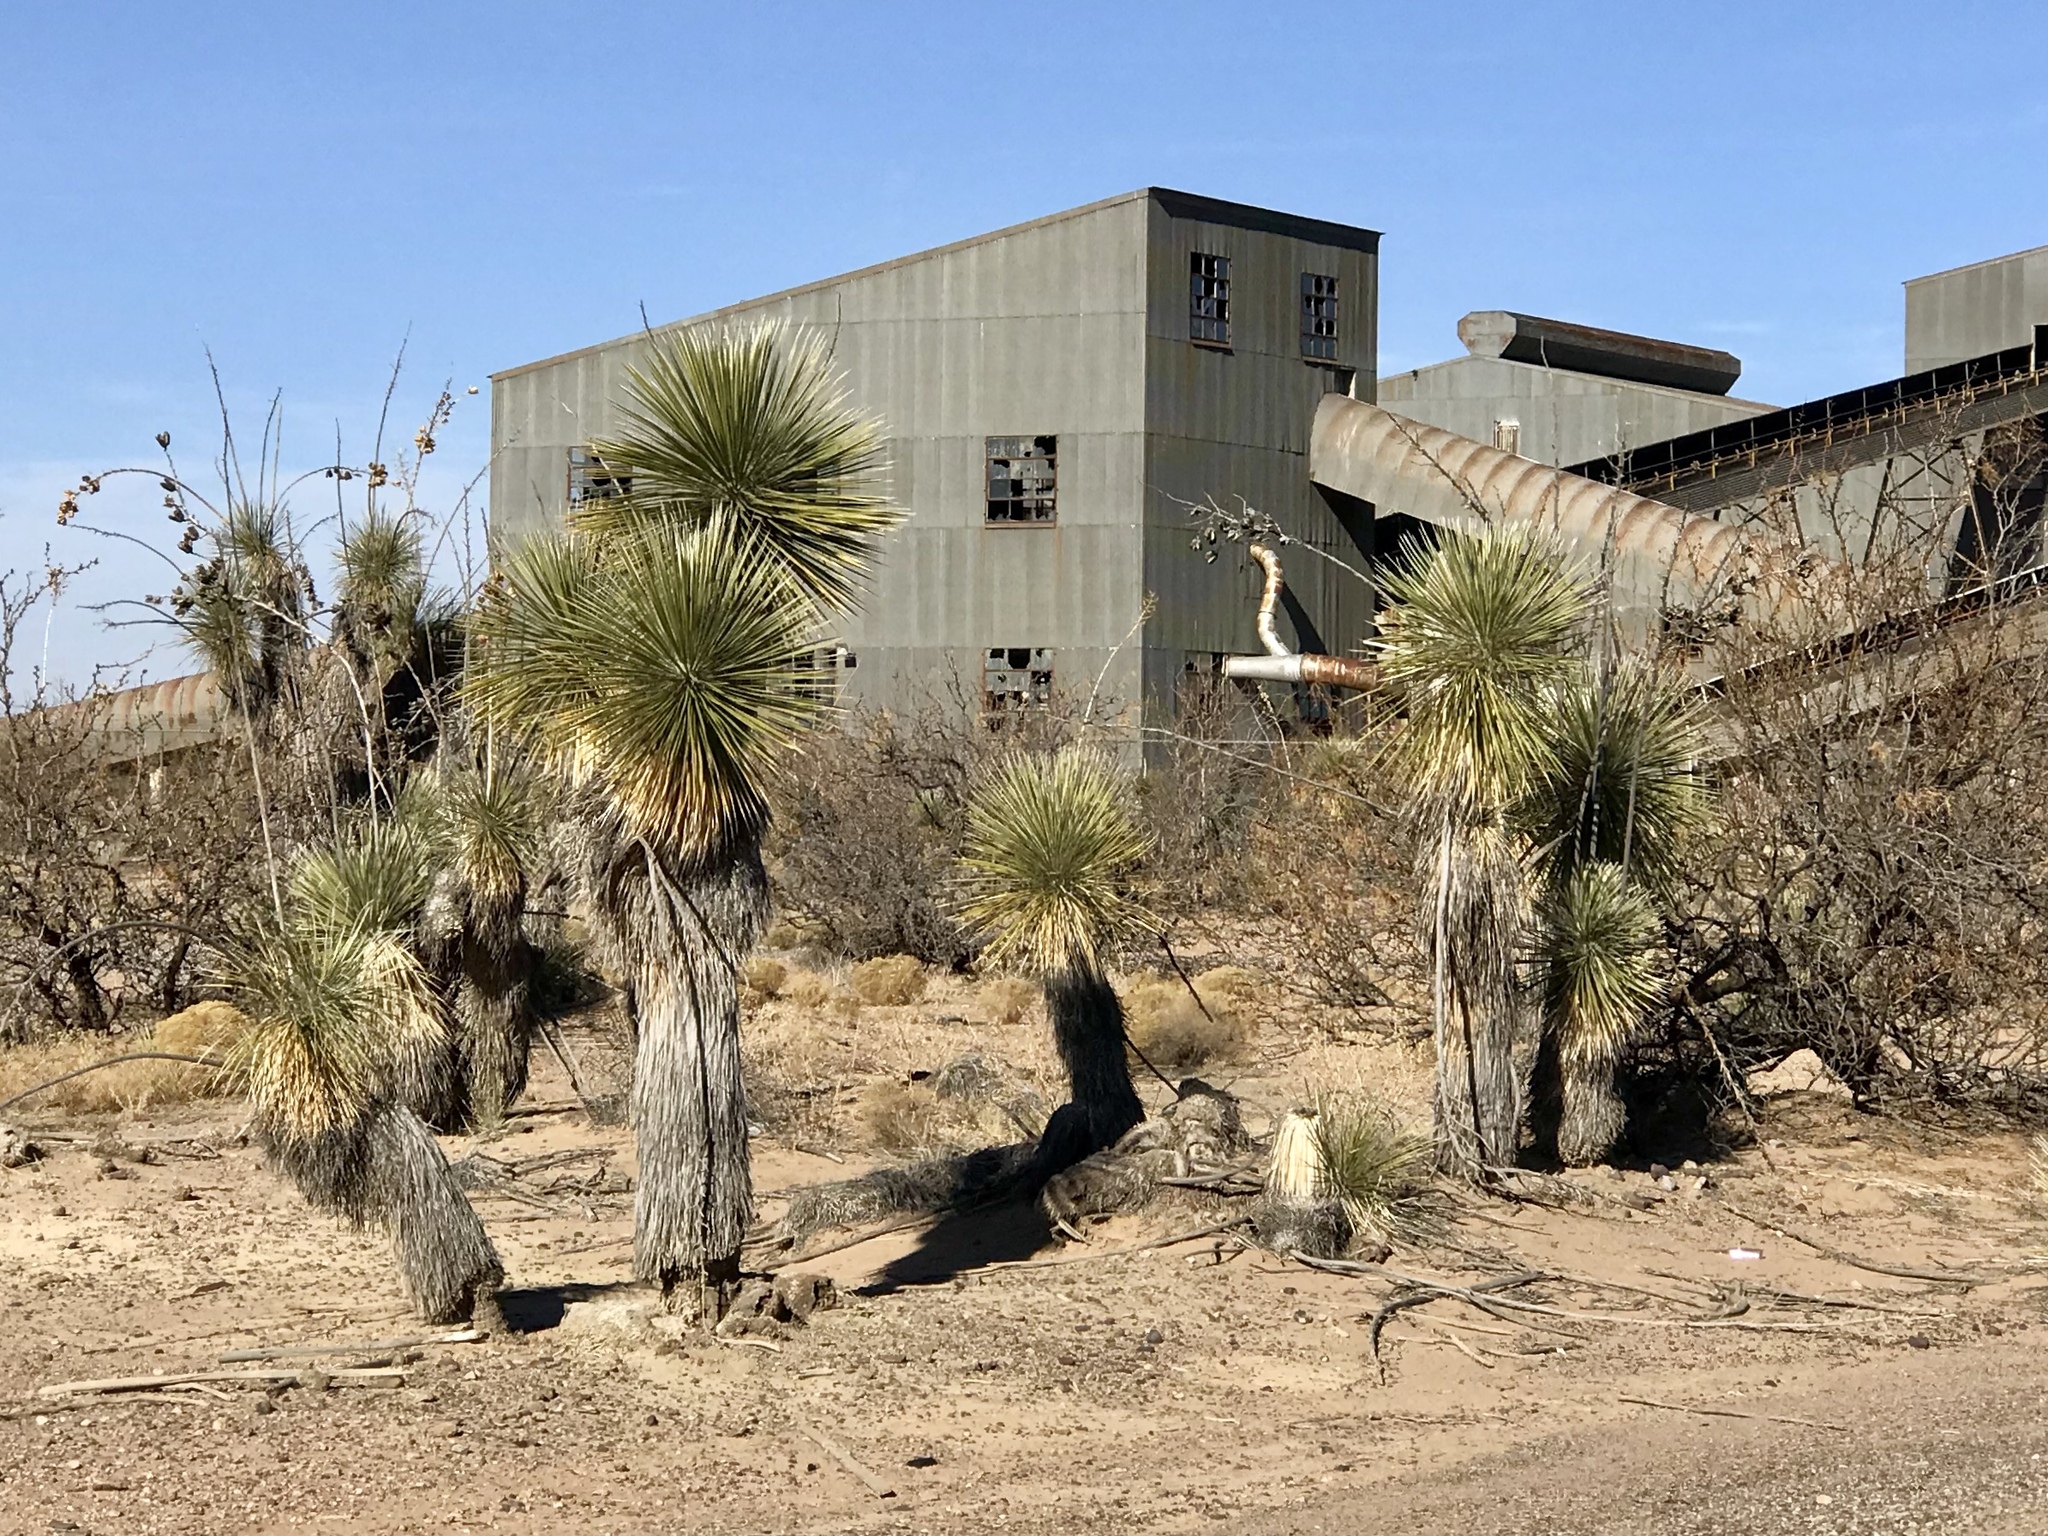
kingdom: Plantae
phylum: Tracheophyta
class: Liliopsida
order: Asparagales
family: Asparagaceae
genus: Yucca
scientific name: Yucca elata
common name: Palmella
